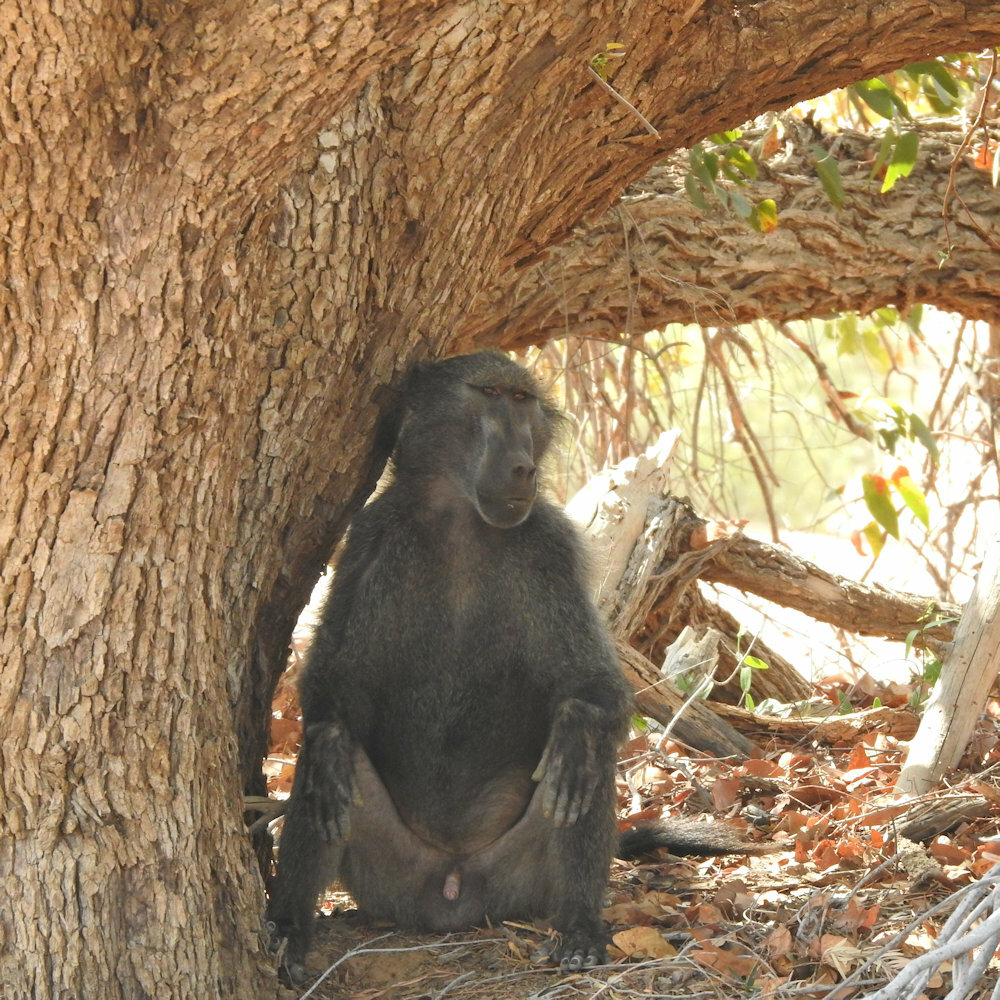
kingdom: Animalia
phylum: Chordata
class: Mammalia
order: Primates
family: Cercopithecidae
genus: Papio
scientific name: Papio ursinus
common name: Chacma baboon
